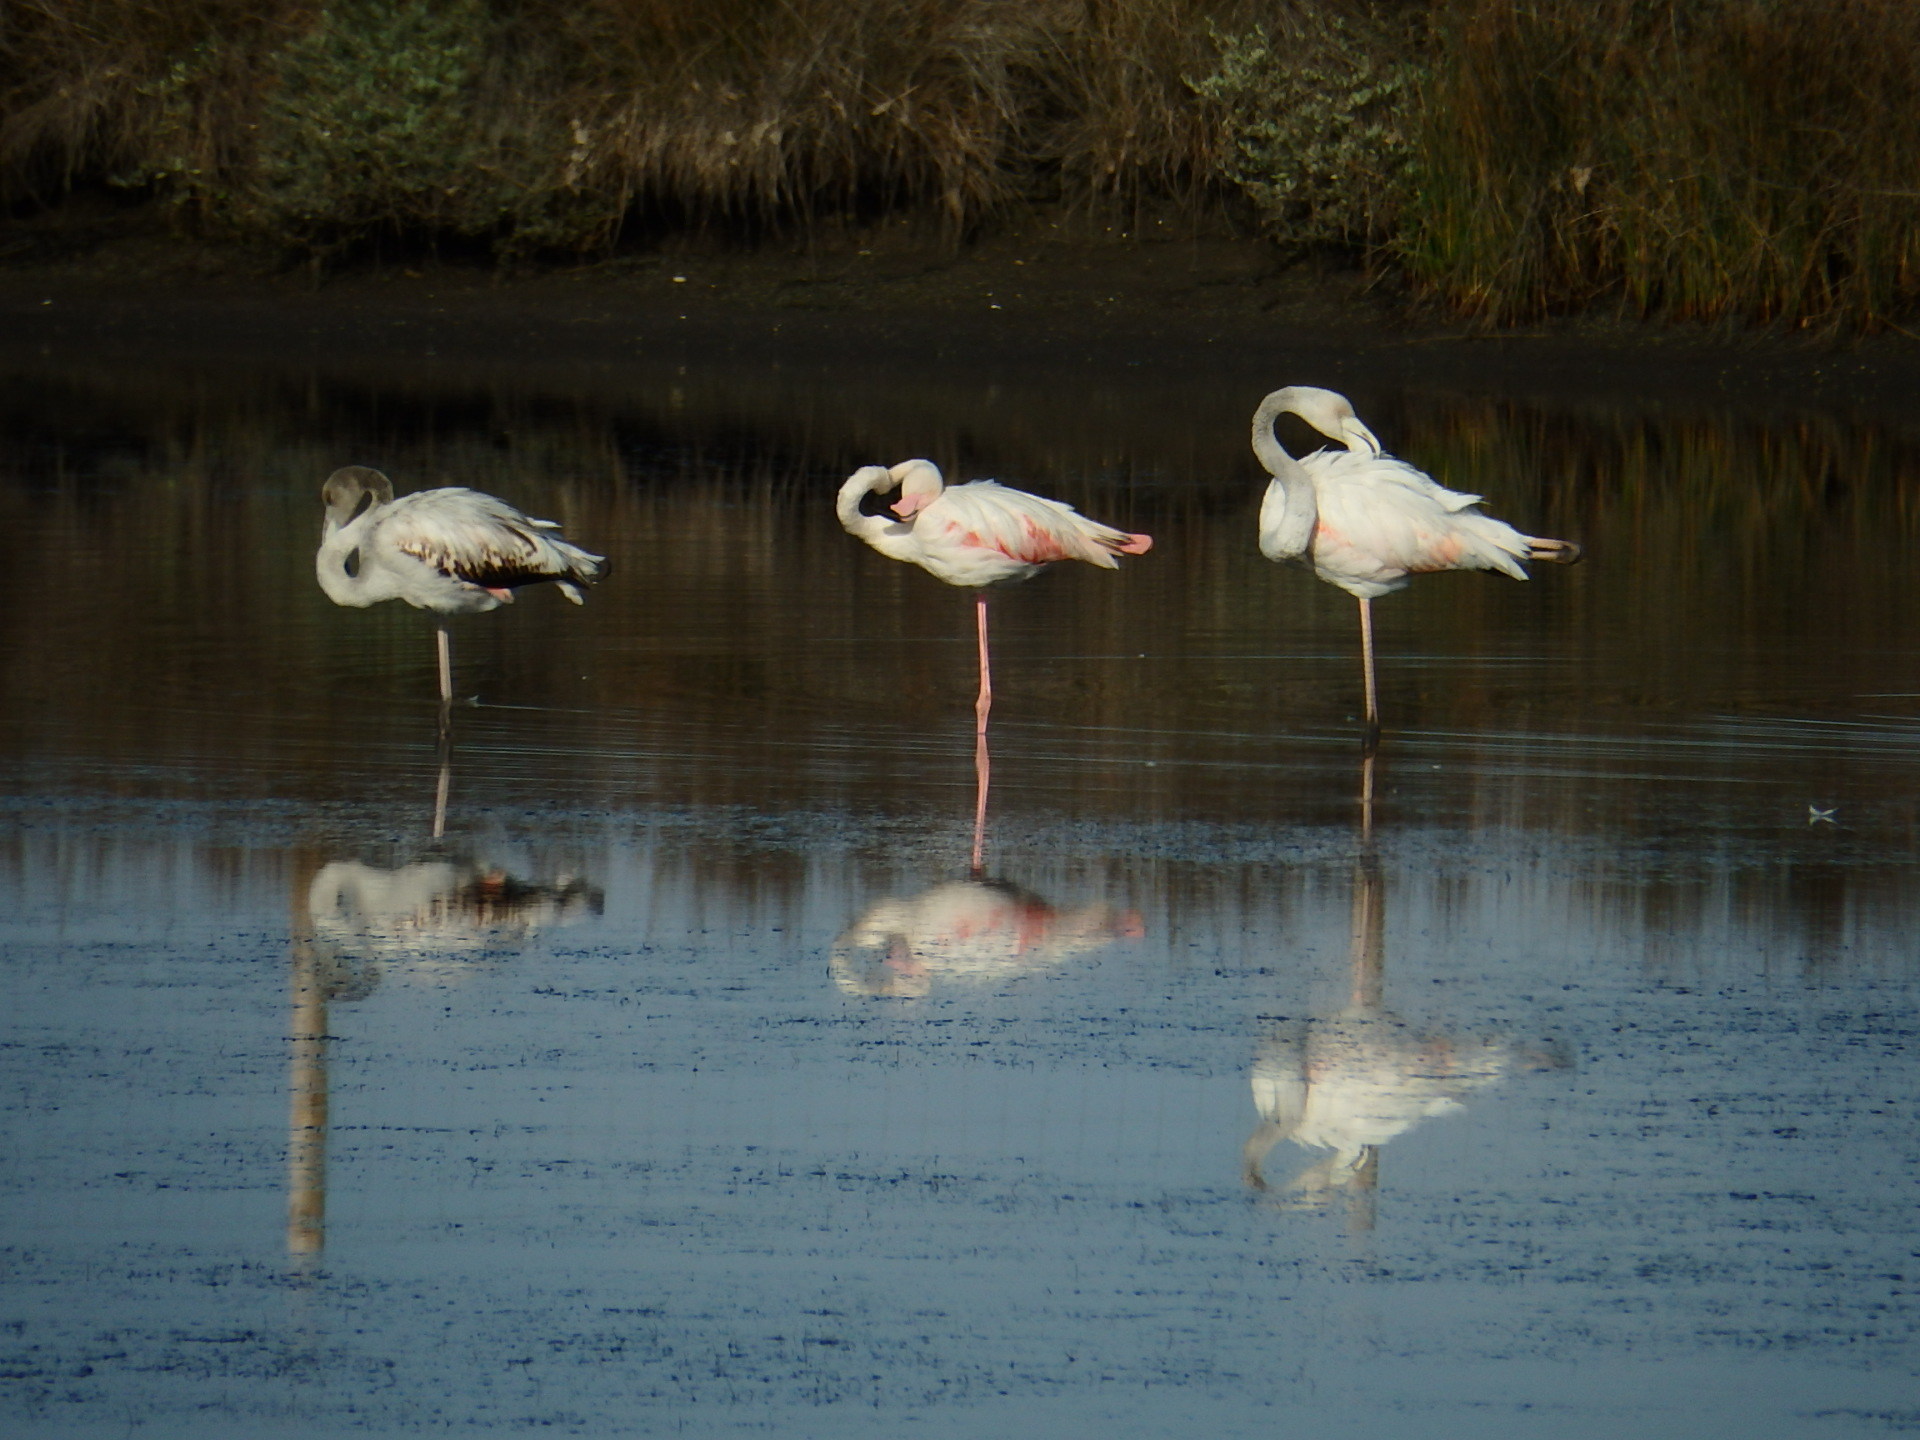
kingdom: Animalia
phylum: Chordata
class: Aves
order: Phoenicopteriformes
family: Phoenicopteridae
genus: Phoenicopterus
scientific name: Phoenicopterus roseus
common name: Greater flamingo
